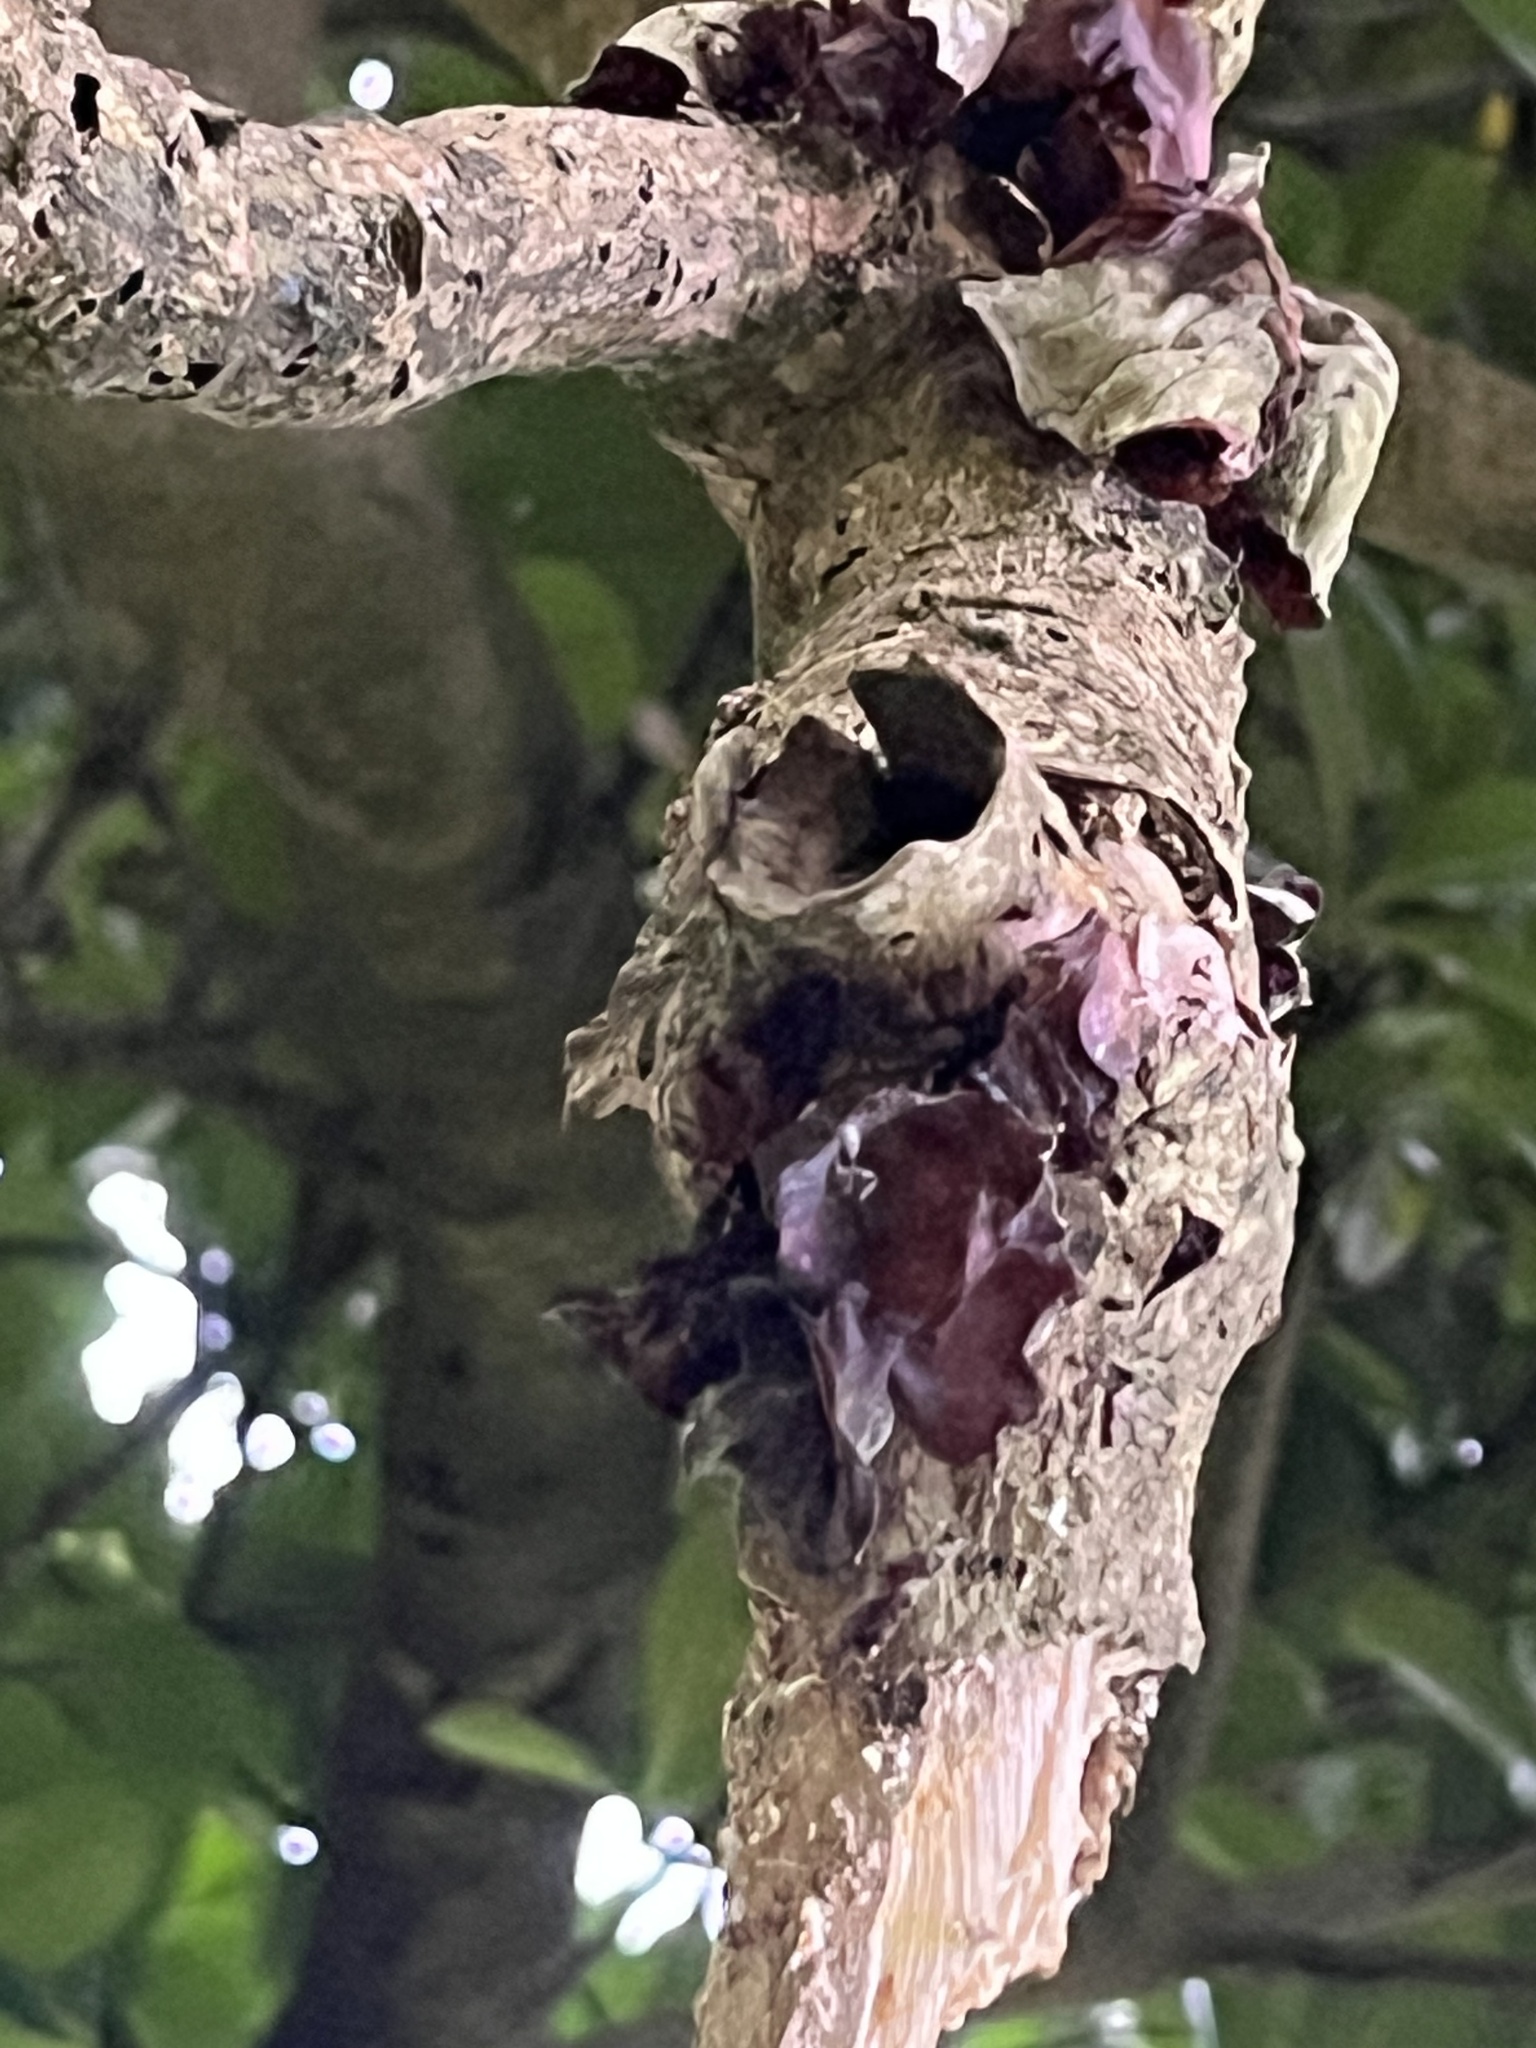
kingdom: Fungi
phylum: Basidiomycota
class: Agaricomycetes
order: Auriculariales
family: Auriculariaceae
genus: Auricularia
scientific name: Auricularia cornea
